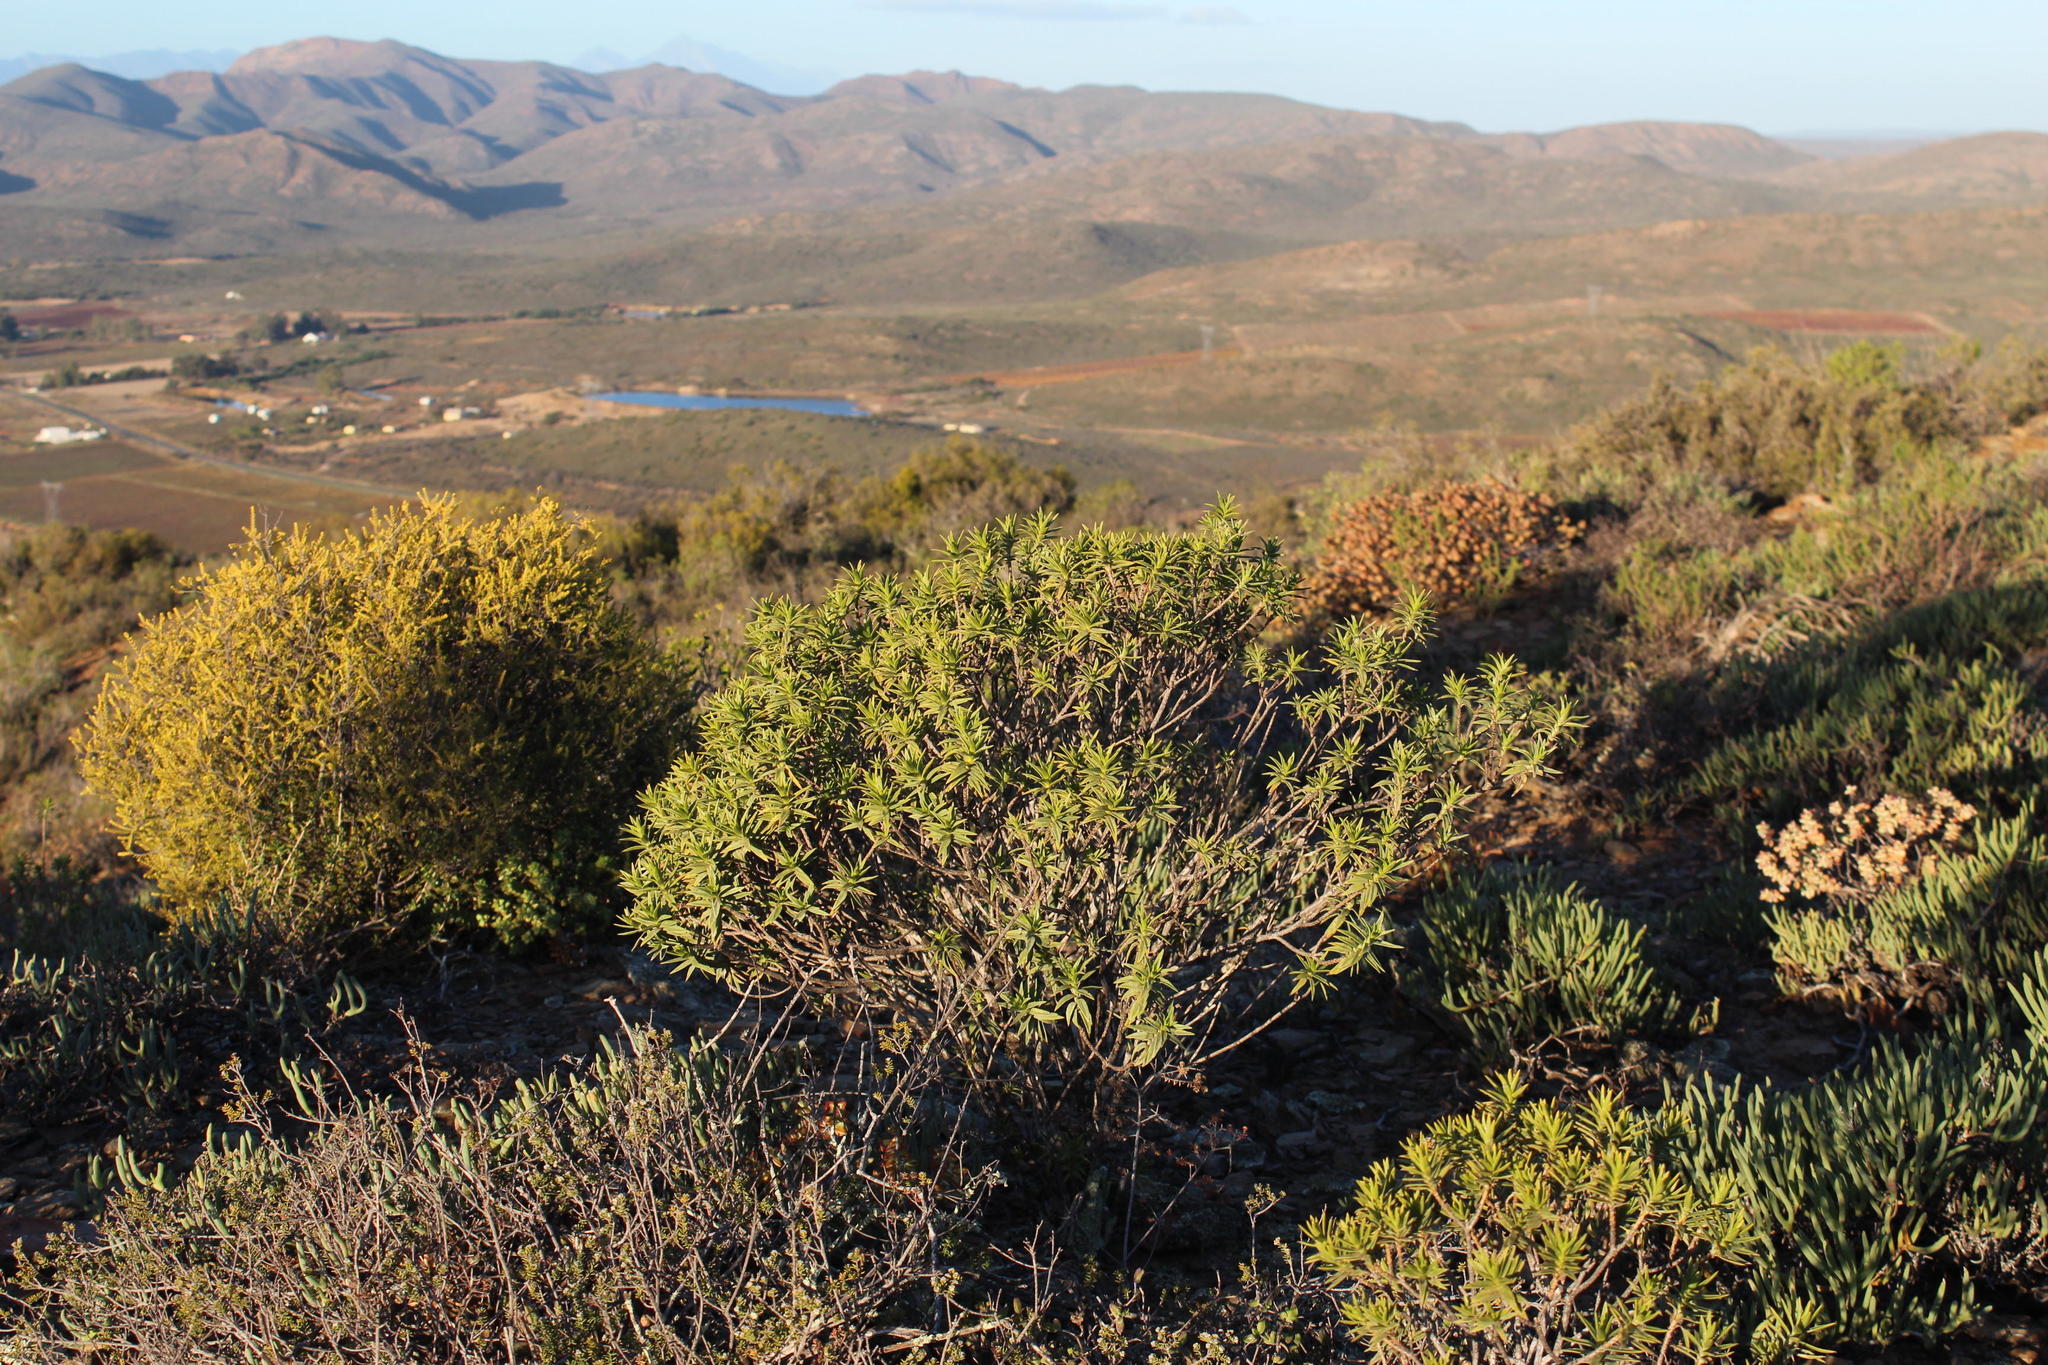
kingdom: Plantae
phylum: Tracheophyta
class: Magnoliopsida
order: Asterales
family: Asteraceae
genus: Pteronia
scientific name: Pteronia fasciculata
